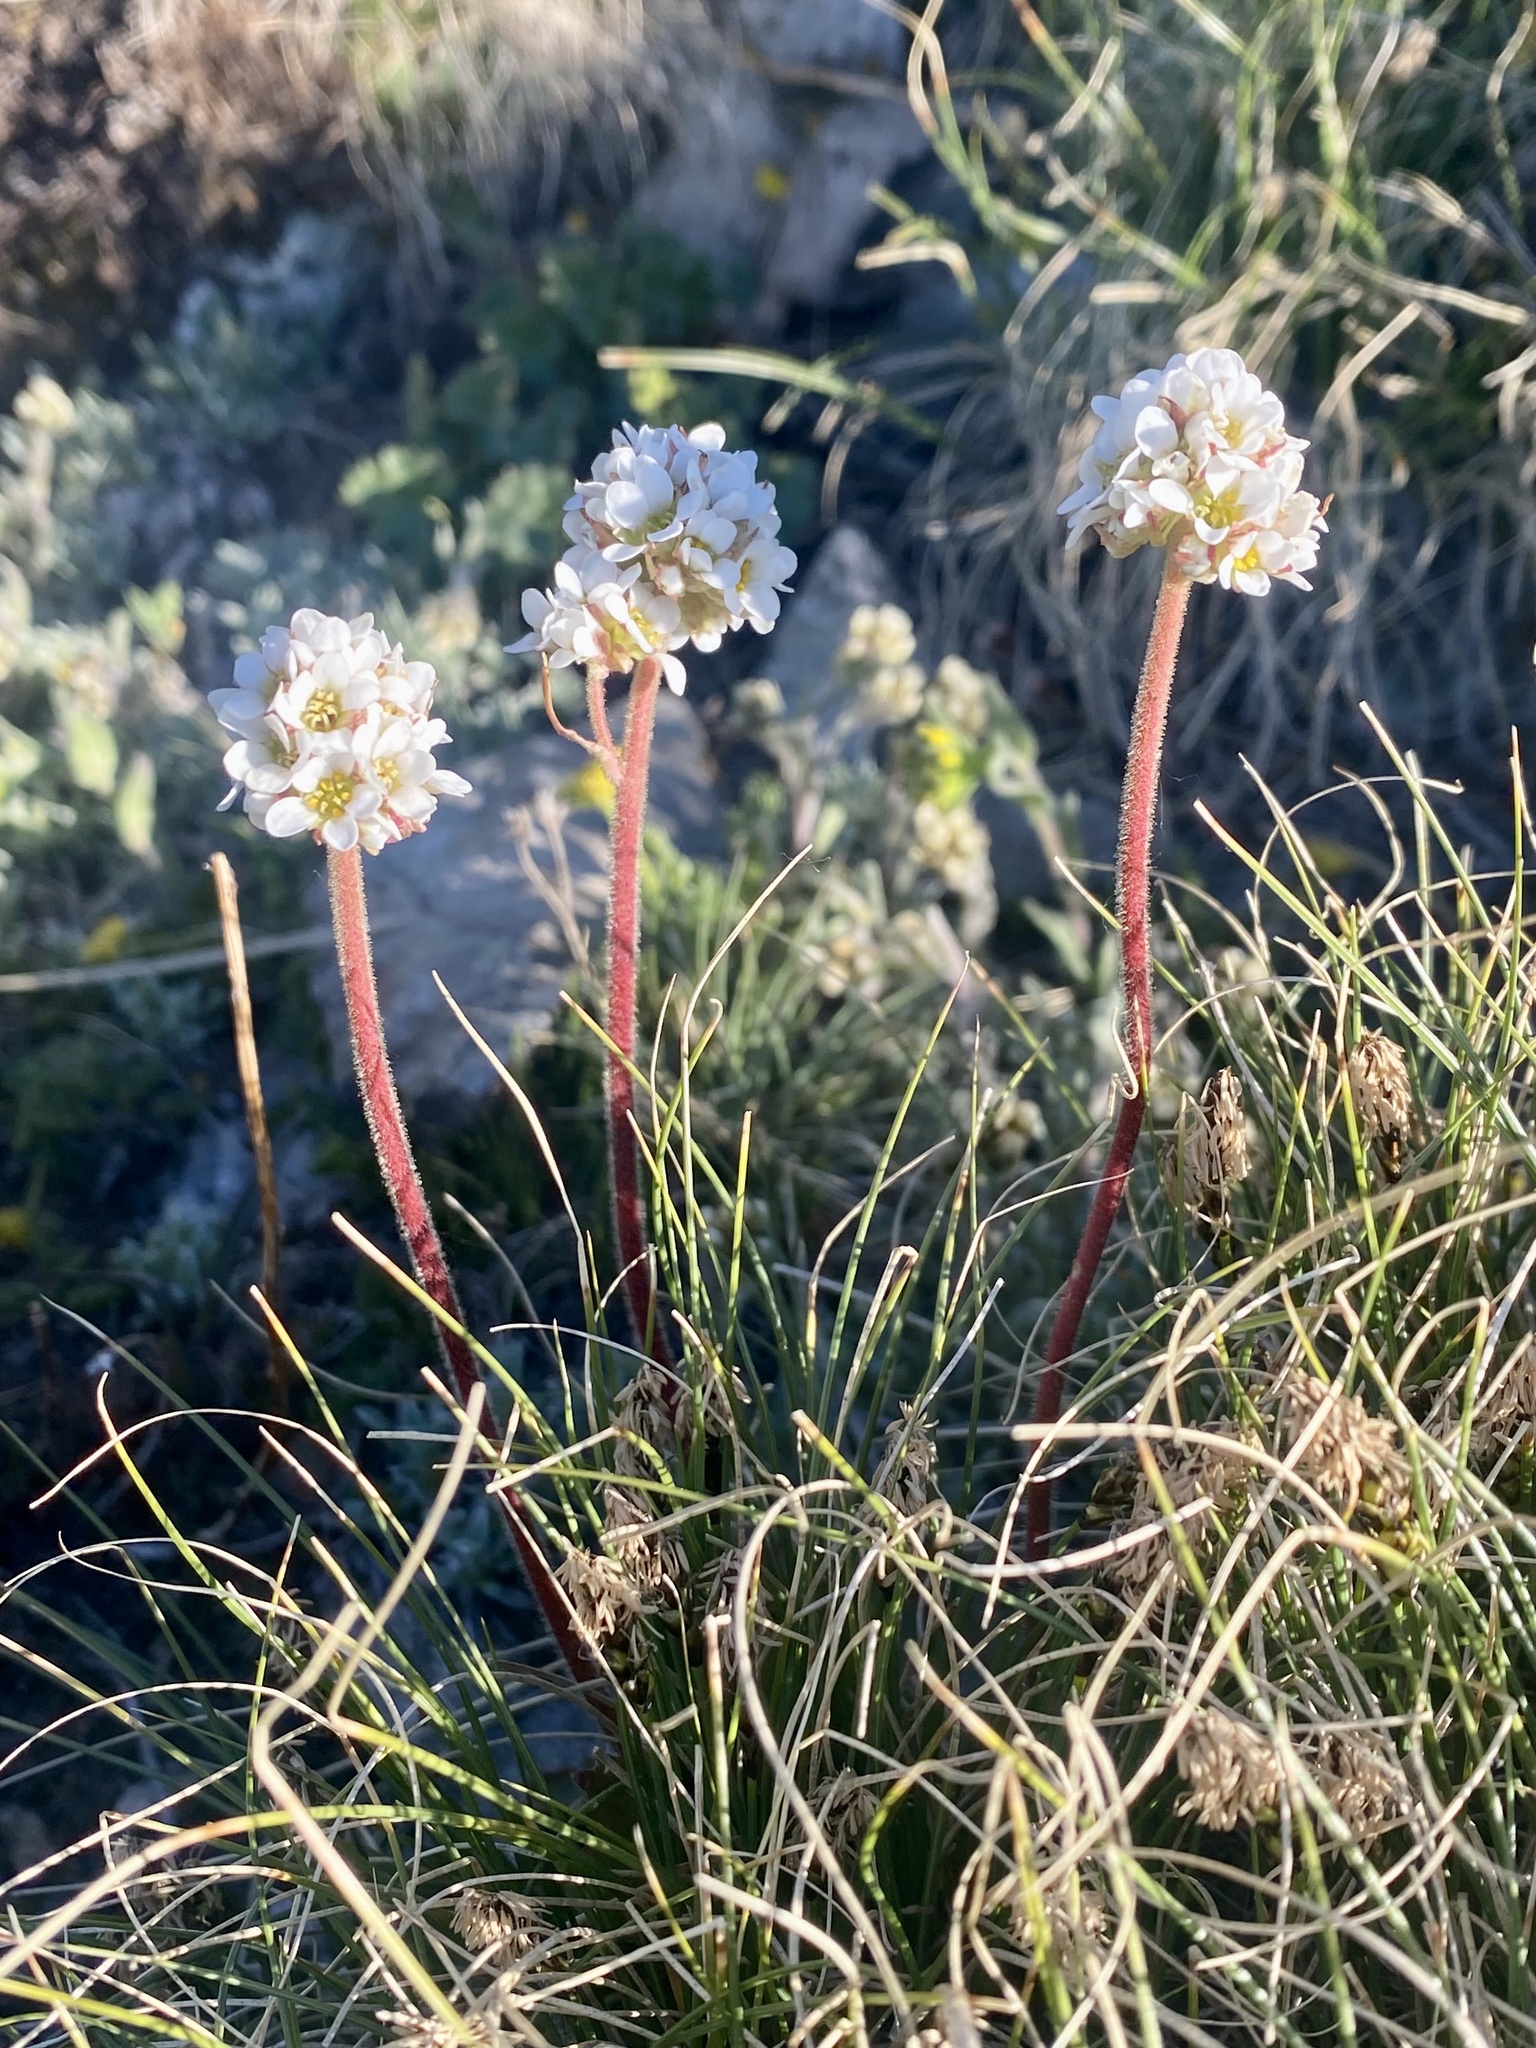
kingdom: Plantae
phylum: Tracheophyta
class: Magnoliopsida
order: Saxifragales
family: Saxifragaceae
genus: Micranthes
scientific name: Micranthes rhomboidea
